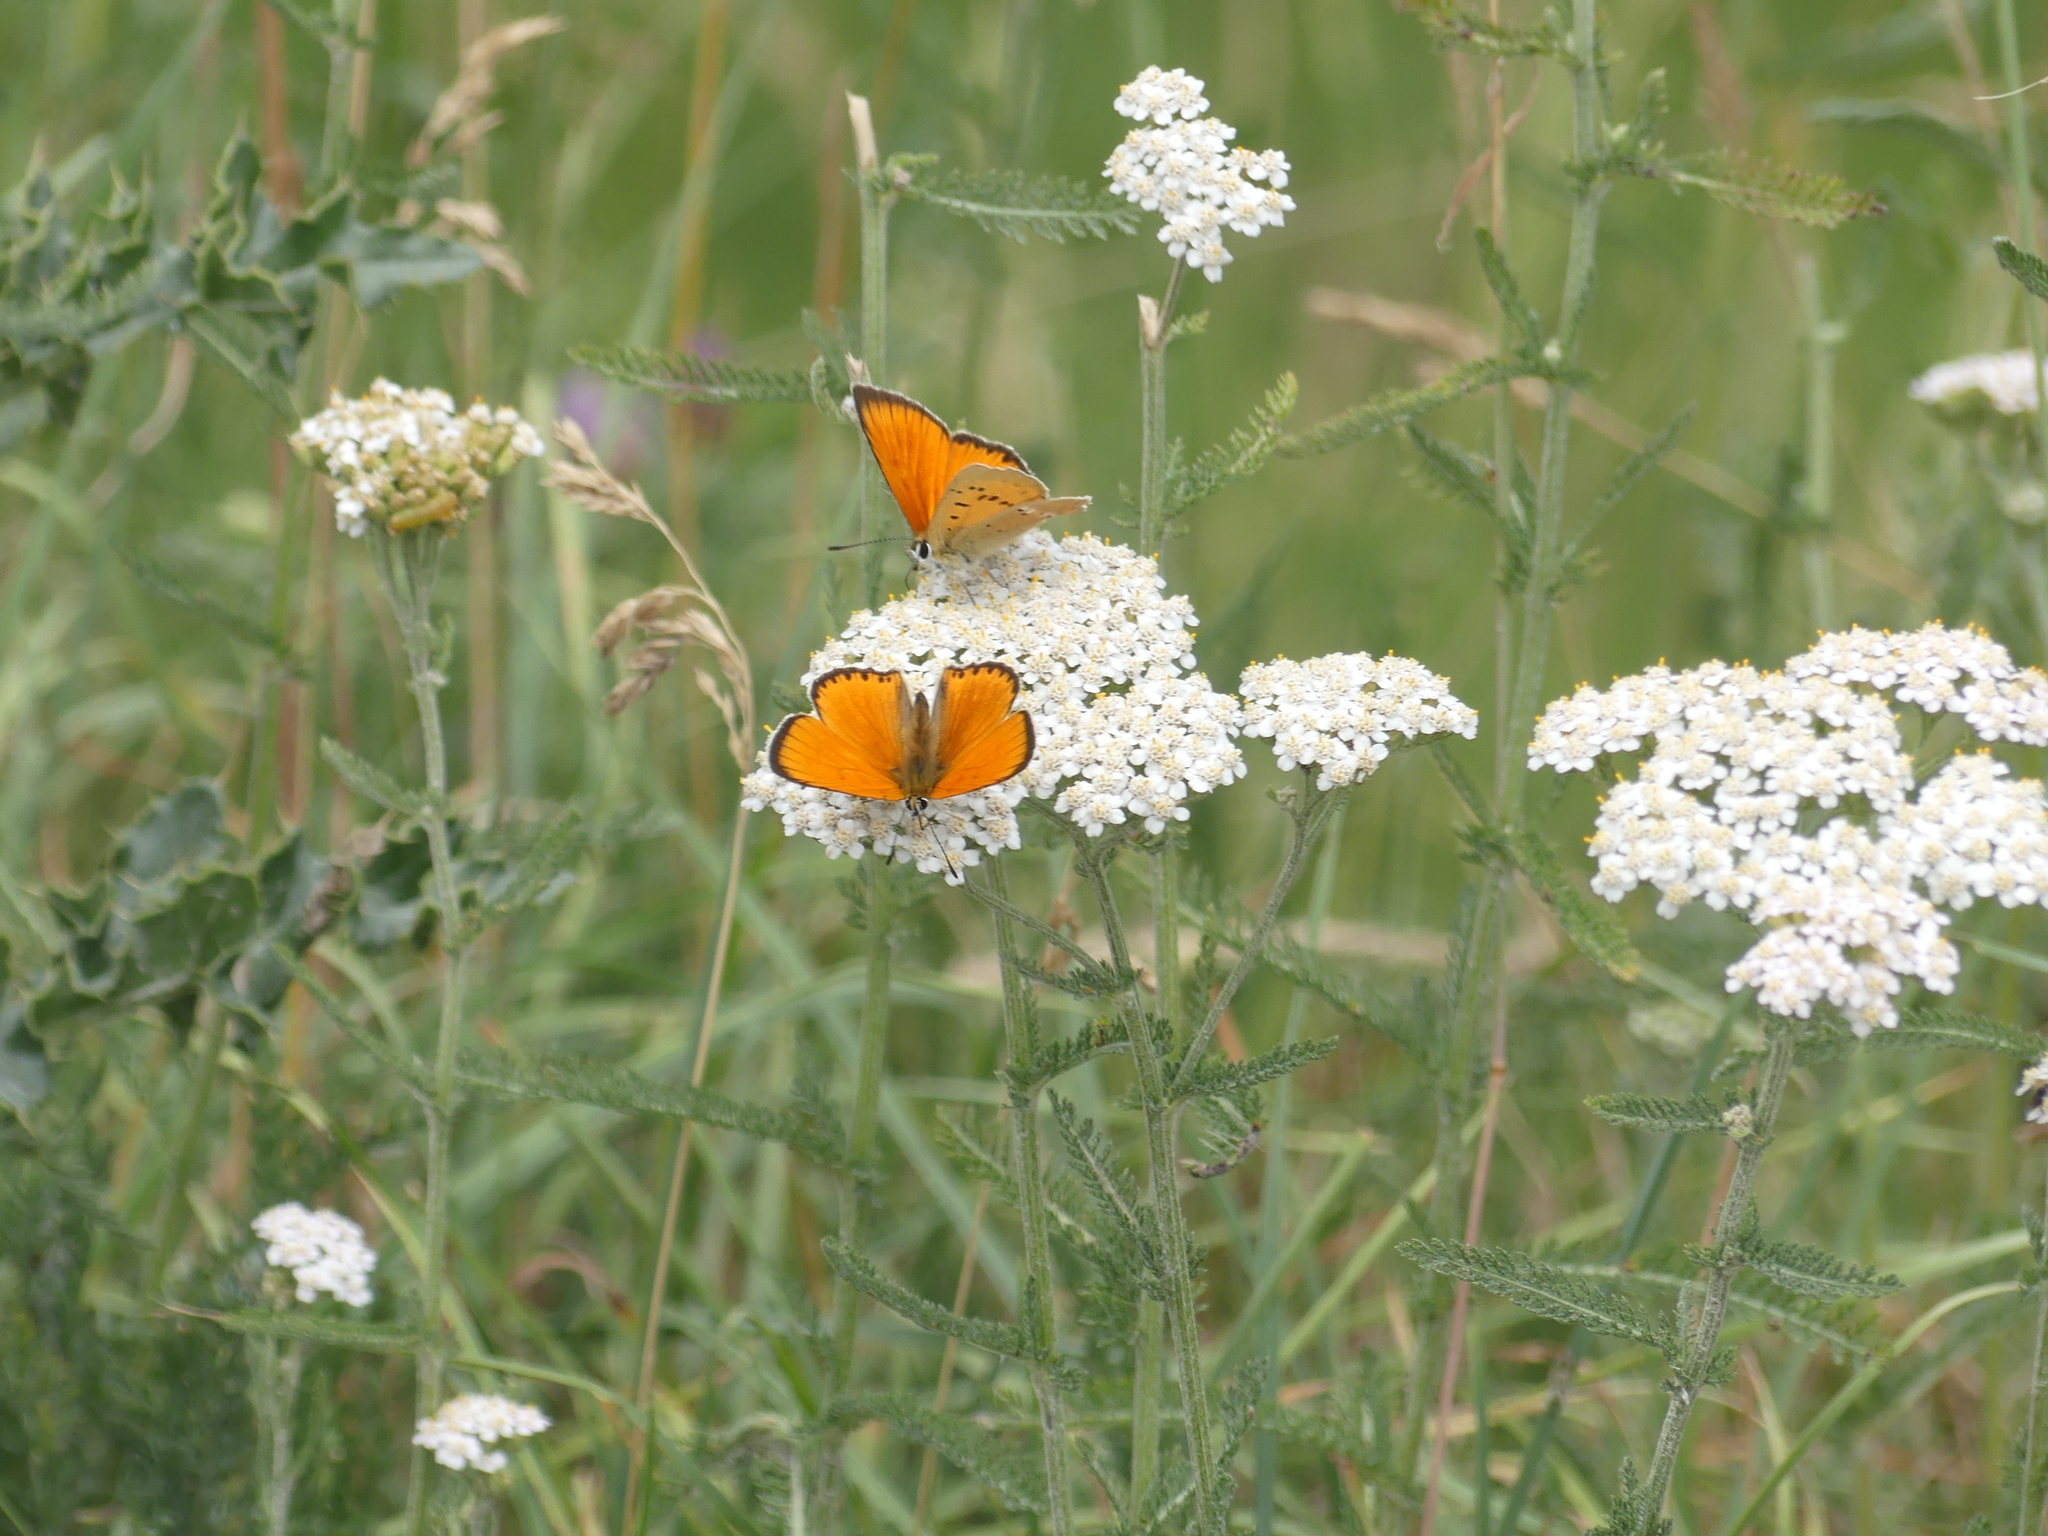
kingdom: Animalia
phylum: Arthropoda
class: Insecta
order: Lepidoptera
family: Lycaenidae
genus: Lycaena
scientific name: Lycaena virgaureae
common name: Scarce copper
